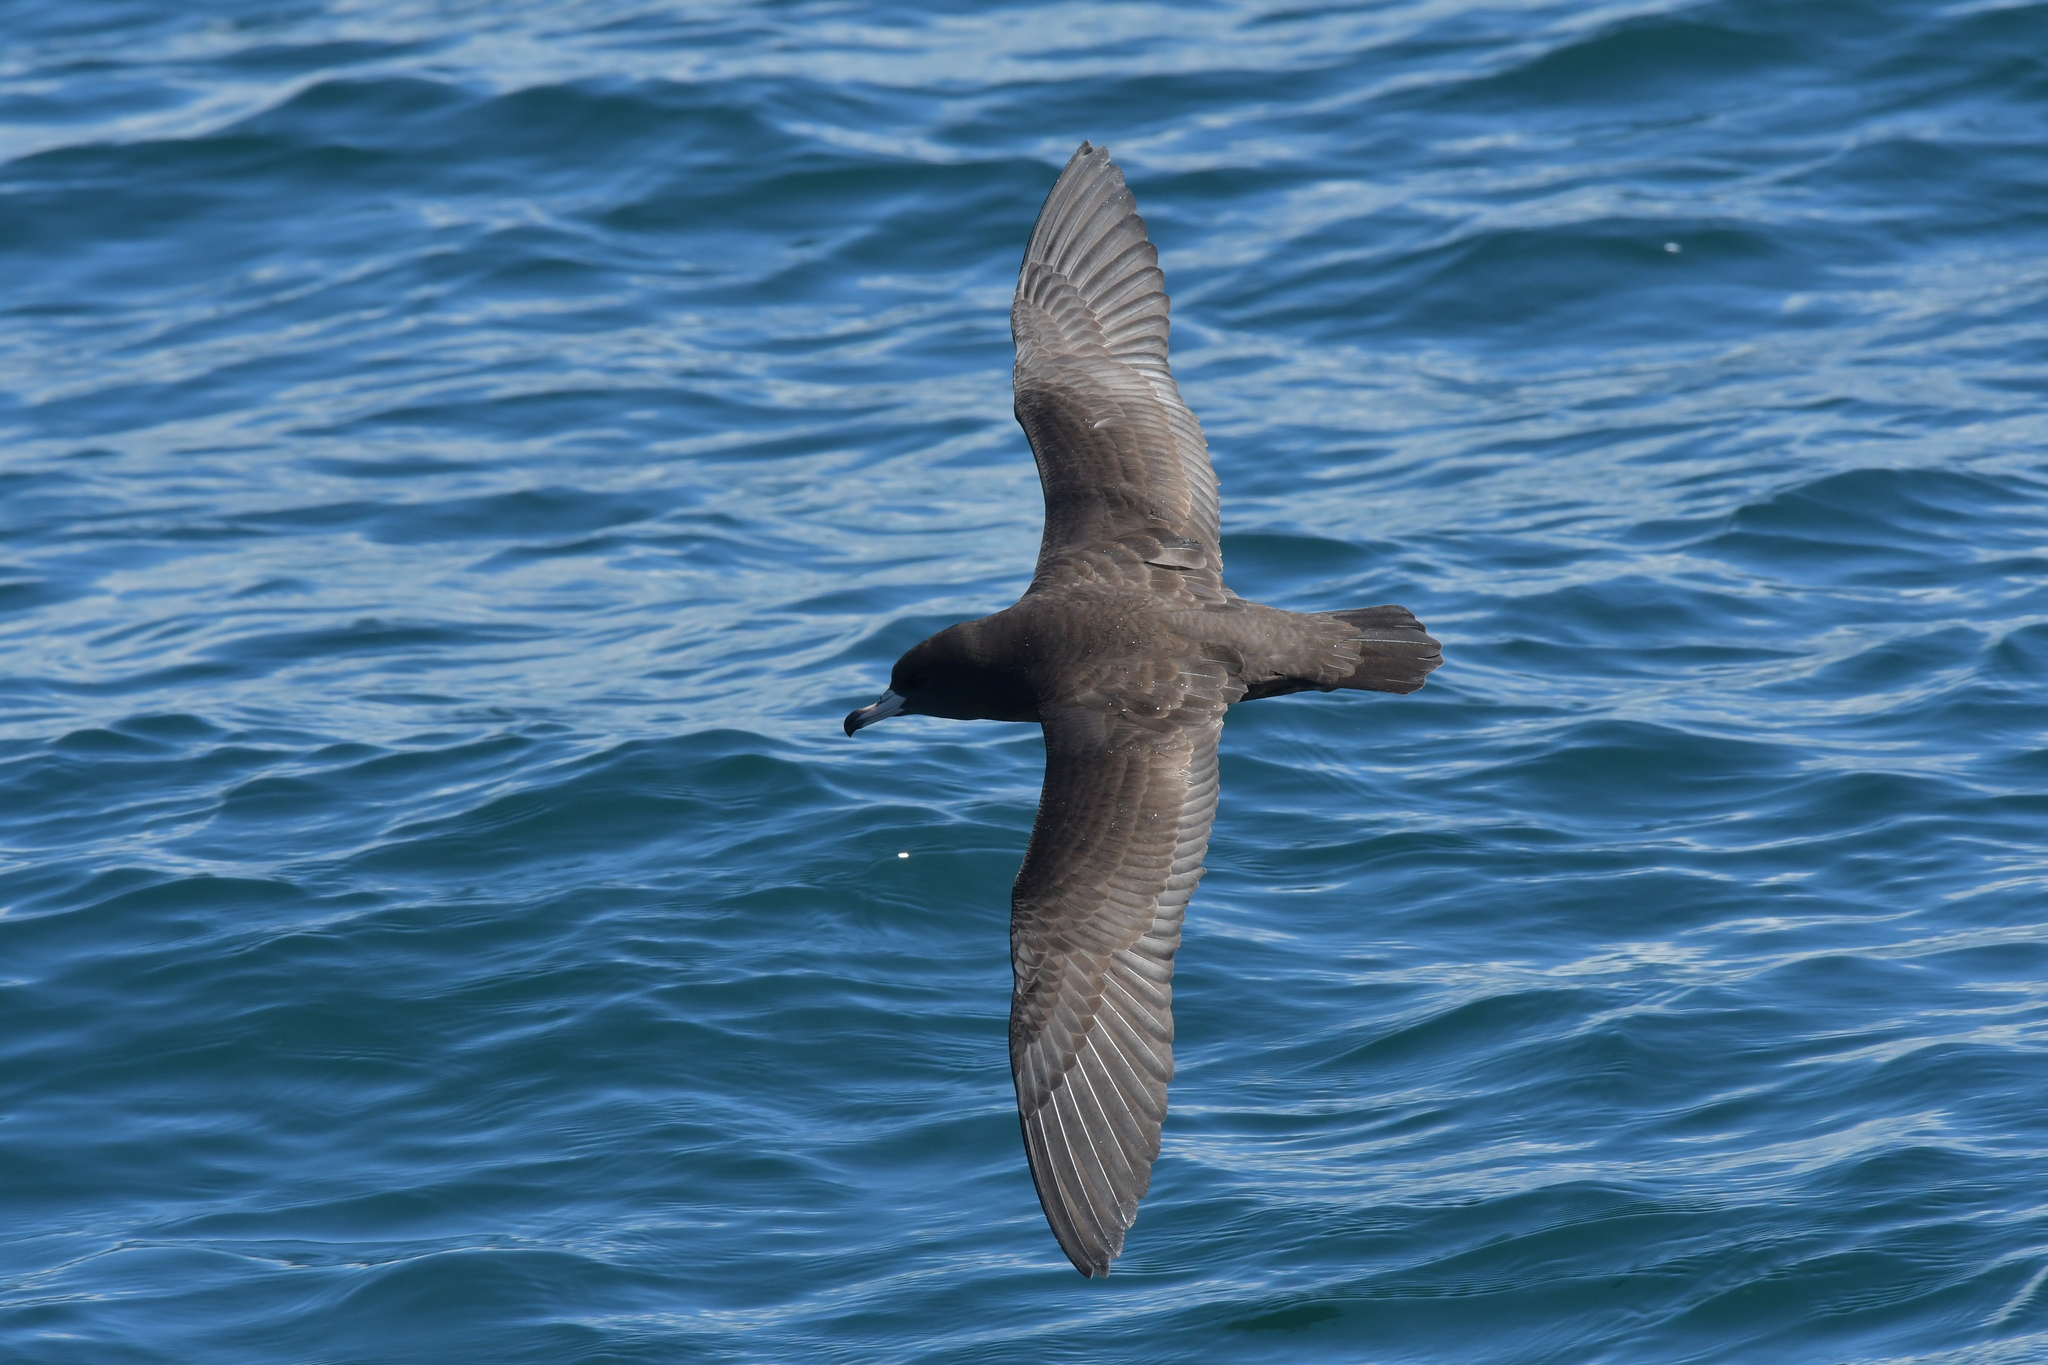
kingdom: Animalia
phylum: Chordata
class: Aves
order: Procellariiformes
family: Procellariidae
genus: Puffinus
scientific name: Puffinus carneipes
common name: Flesh-footed shearwater
